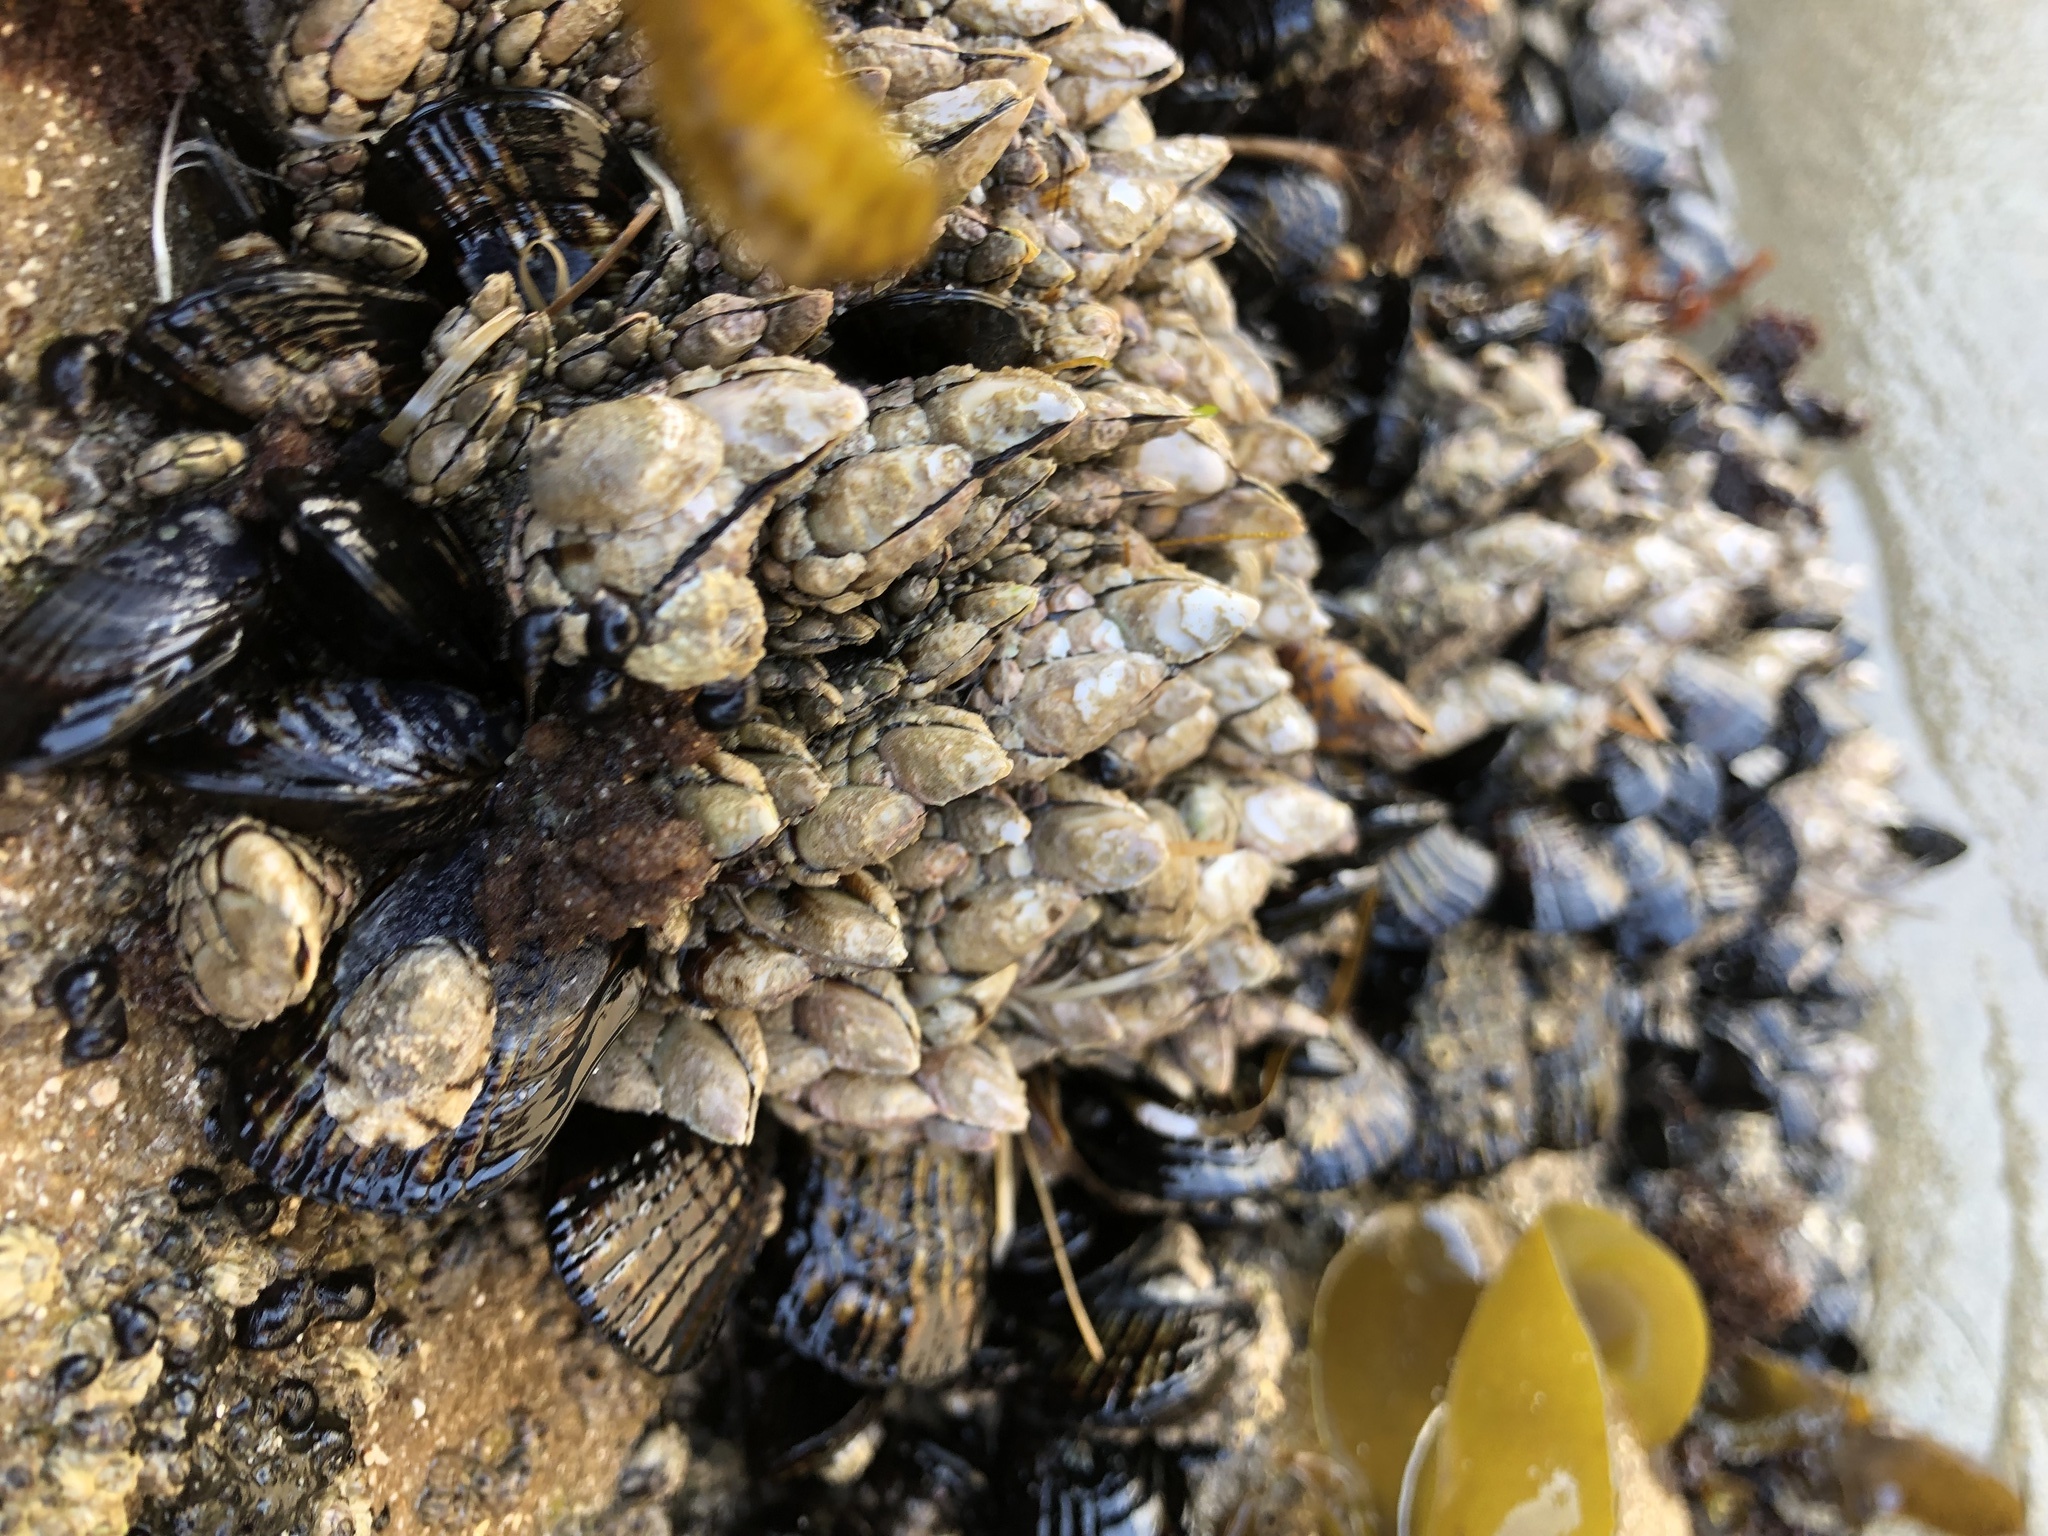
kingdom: Animalia
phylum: Arthropoda
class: Maxillopoda
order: Pedunculata
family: Pollicipedidae
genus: Pollicipes
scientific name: Pollicipes polymerus
